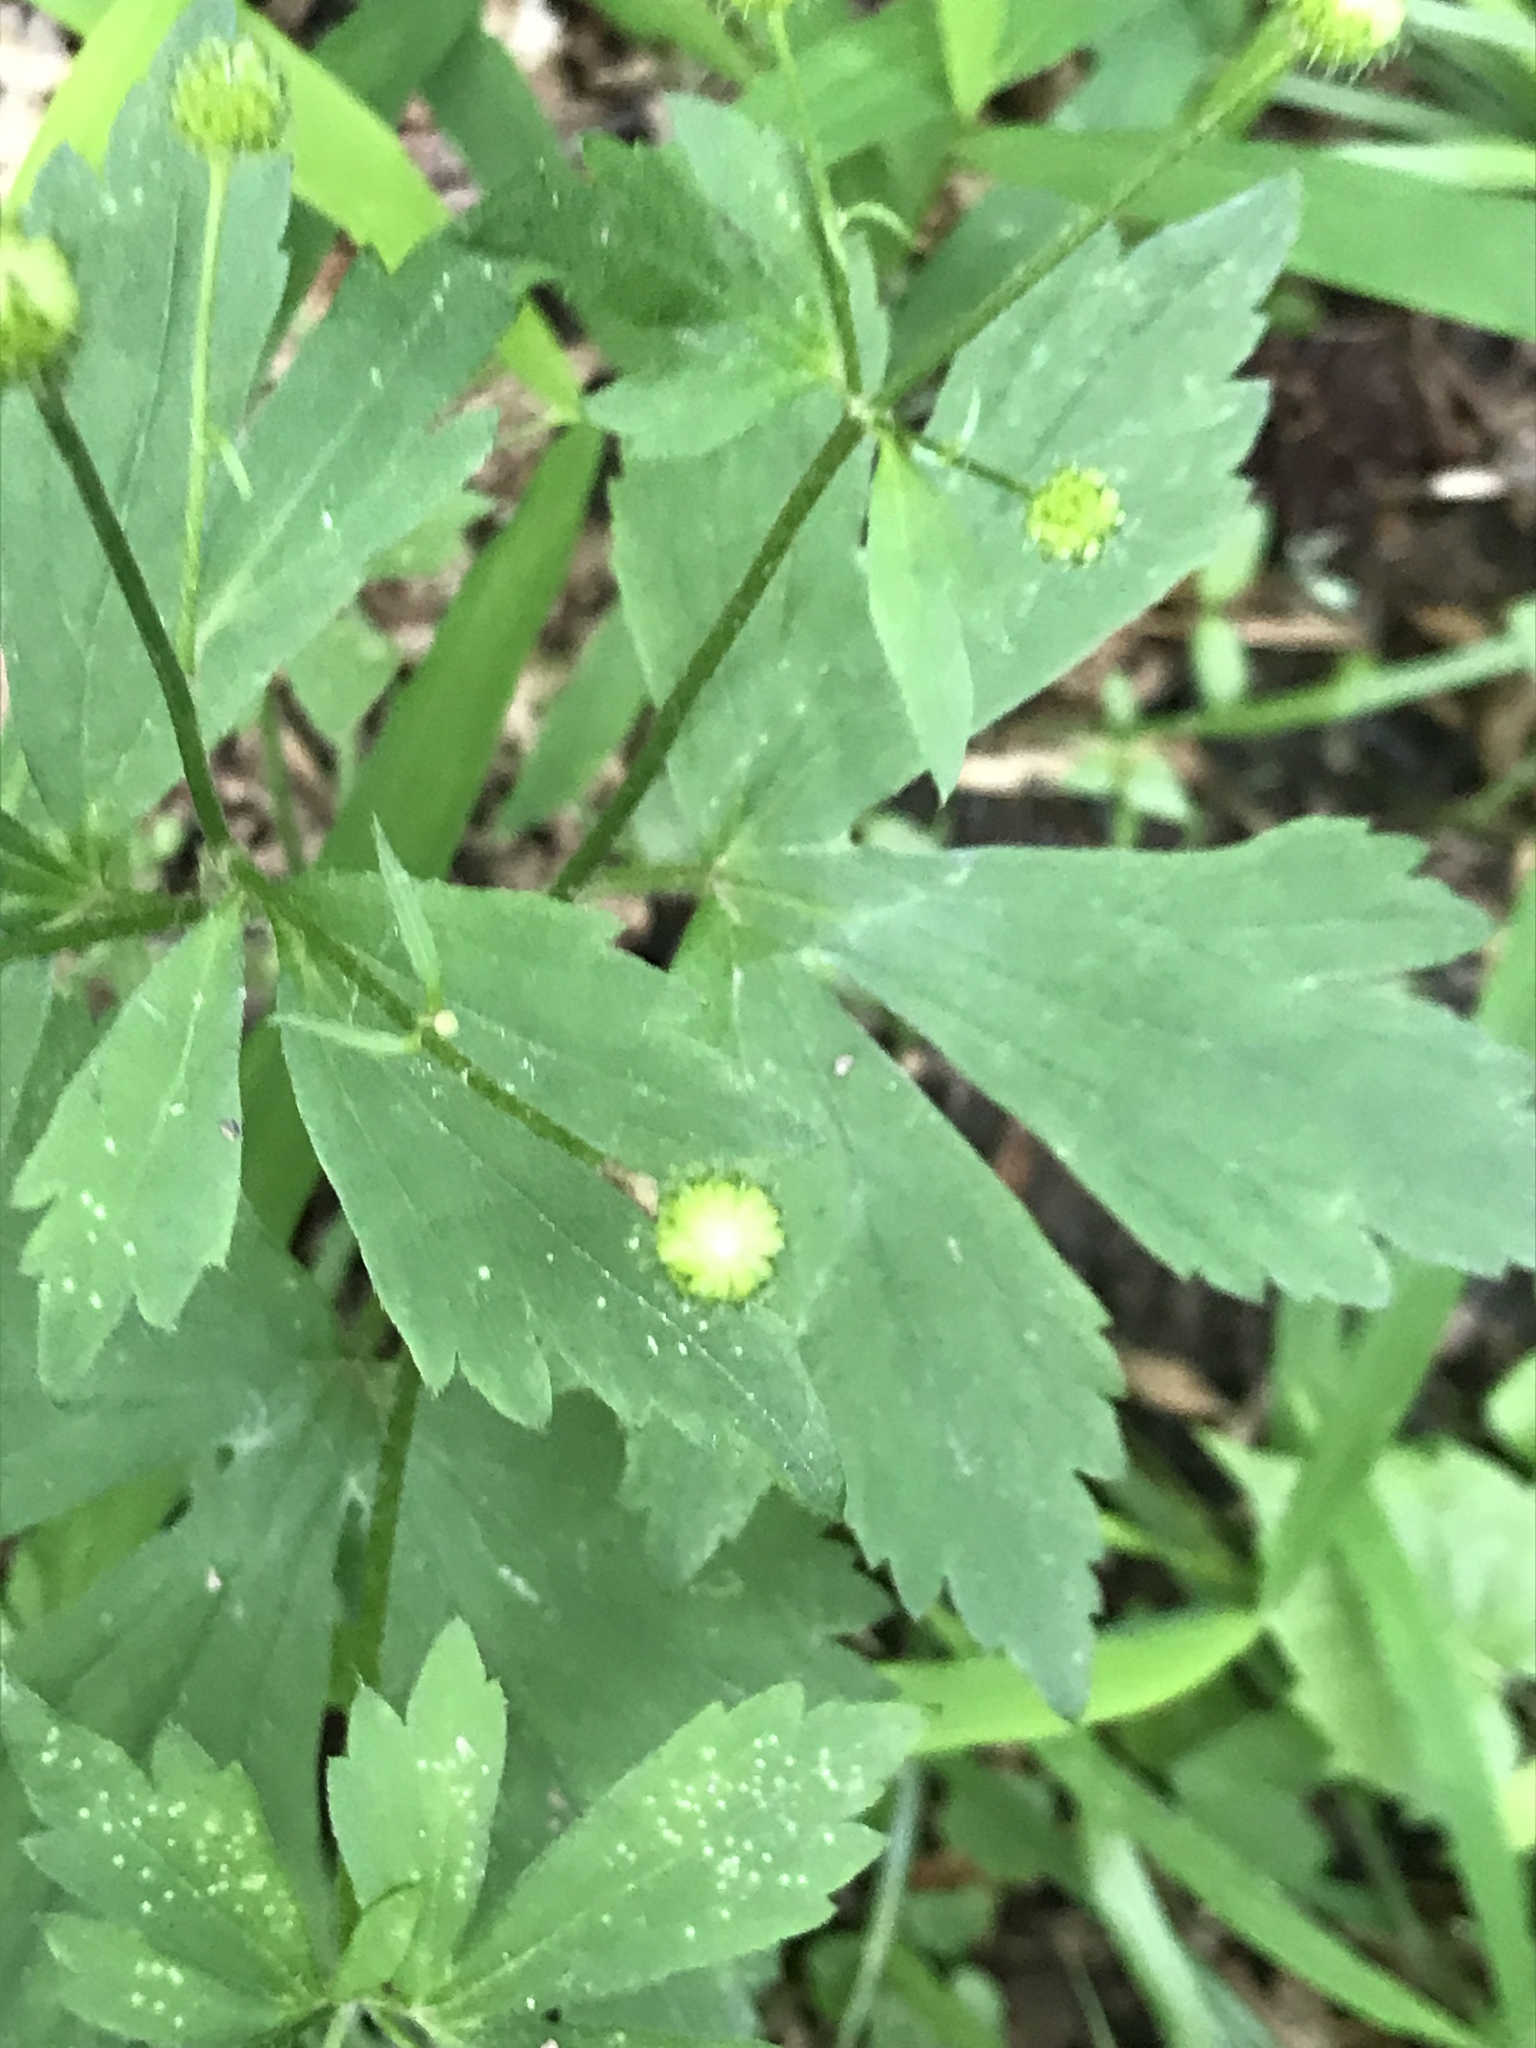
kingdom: Plantae
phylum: Tracheophyta
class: Magnoliopsida
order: Ranunculales
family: Ranunculaceae
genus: Ranunculus
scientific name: Ranunculus recurvatus
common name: Blisterwort
